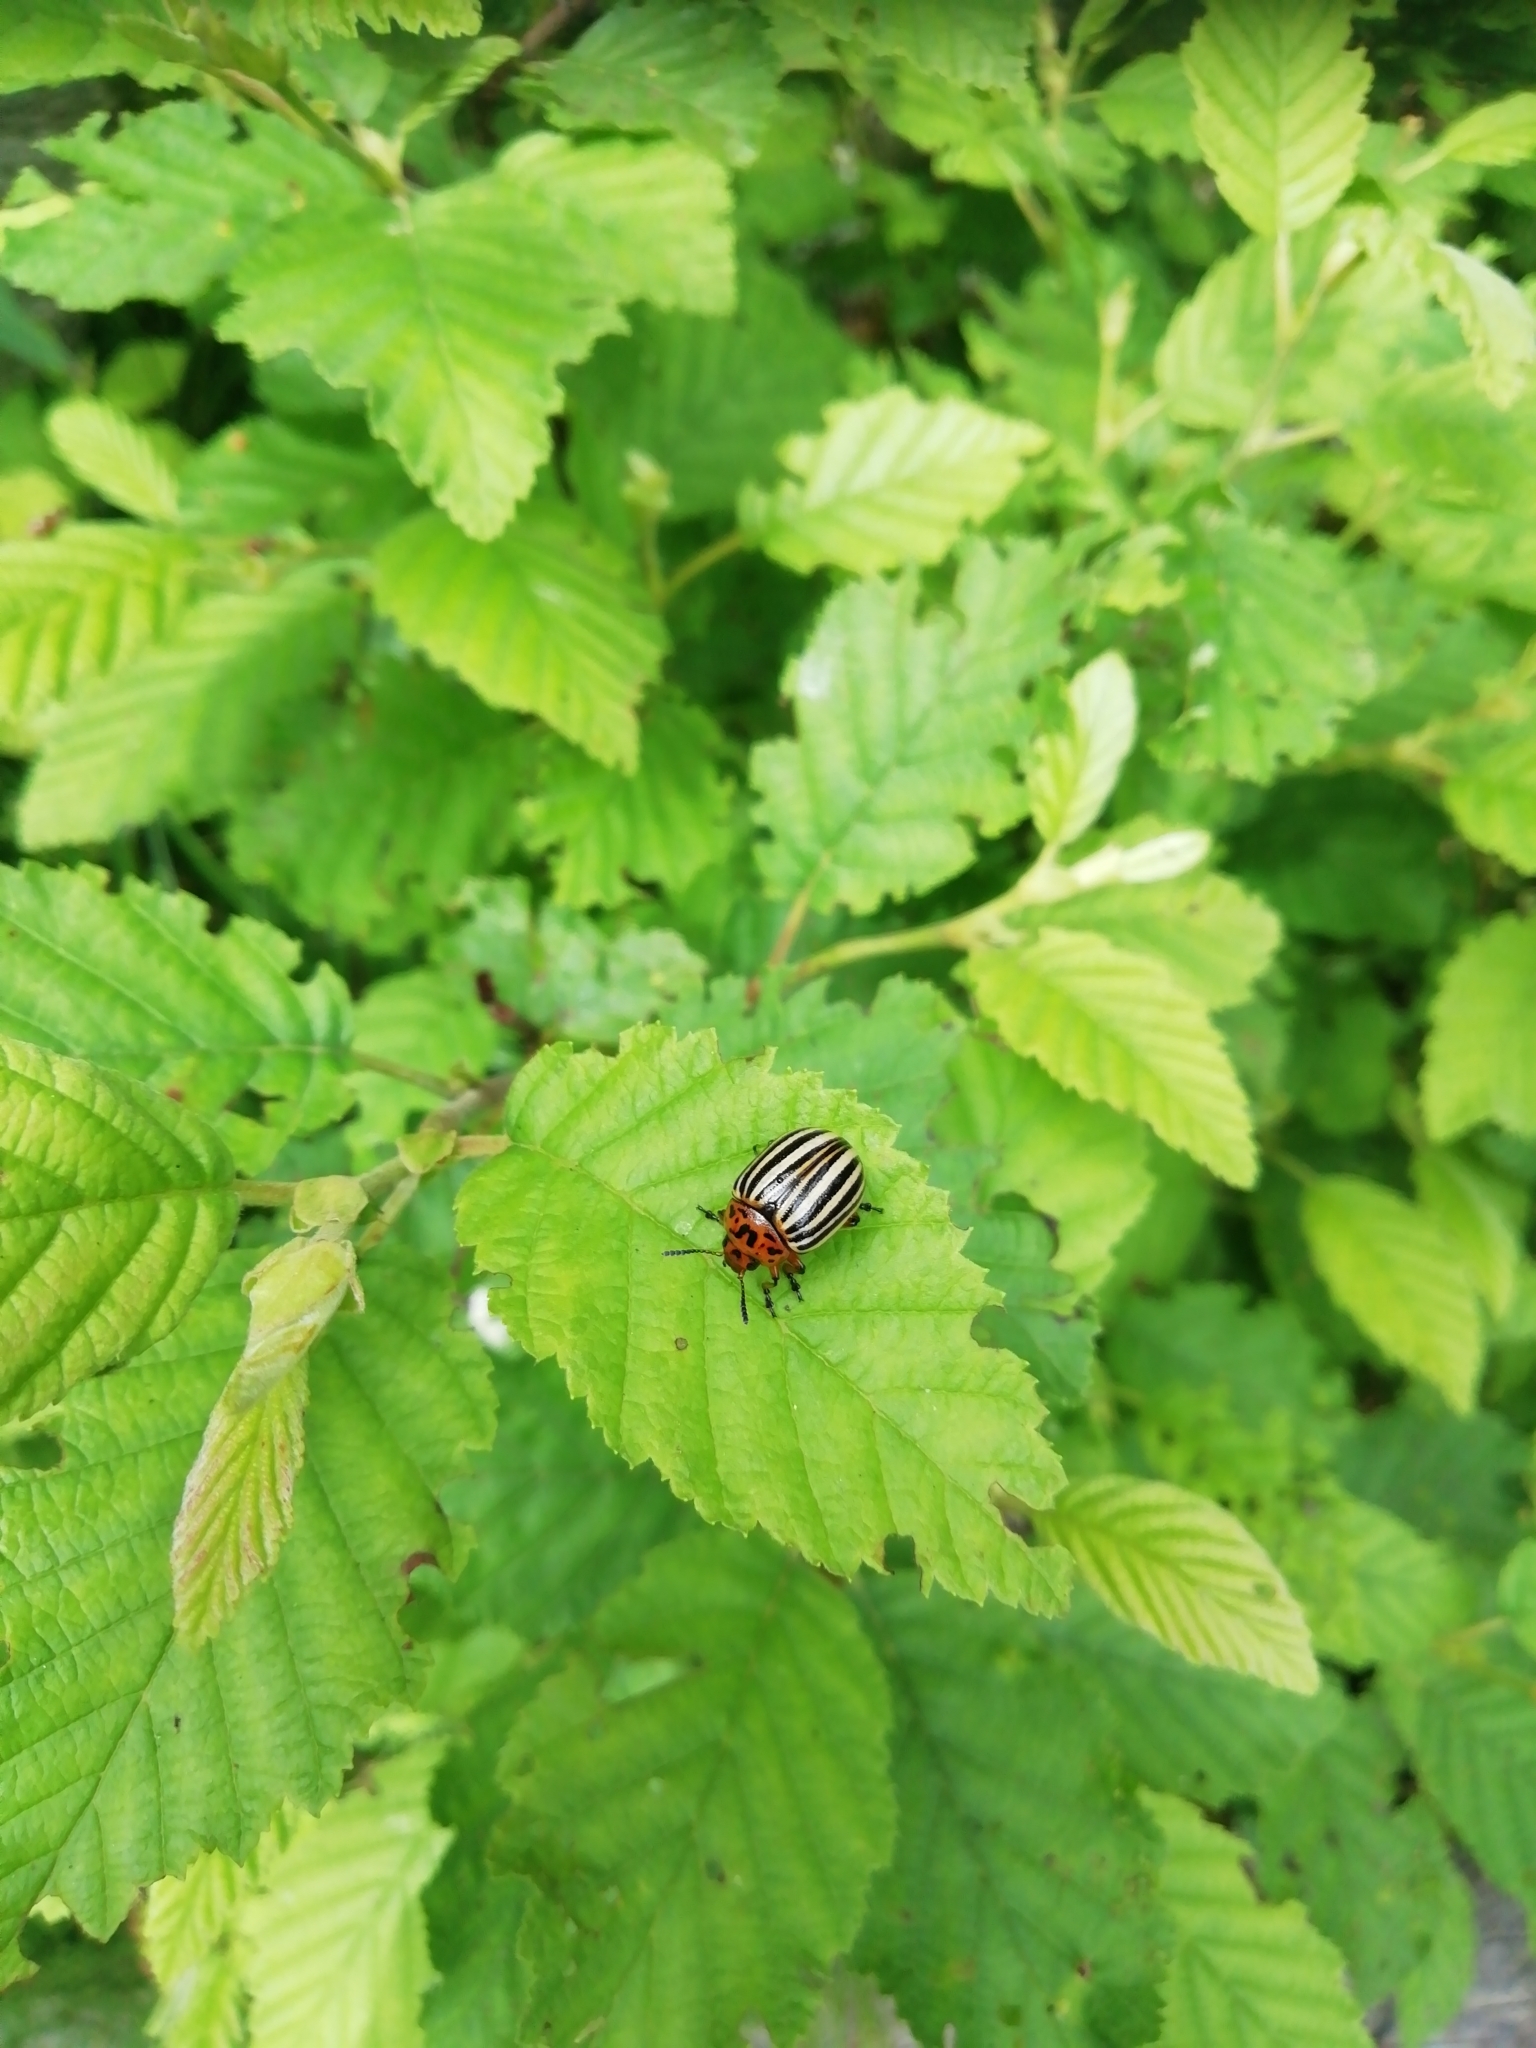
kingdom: Animalia
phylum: Arthropoda
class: Insecta
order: Coleoptera
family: Chrysomelidae
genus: Leptinotarsa
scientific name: Leptinotarsa decemlineata
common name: Colorado potato beetle
